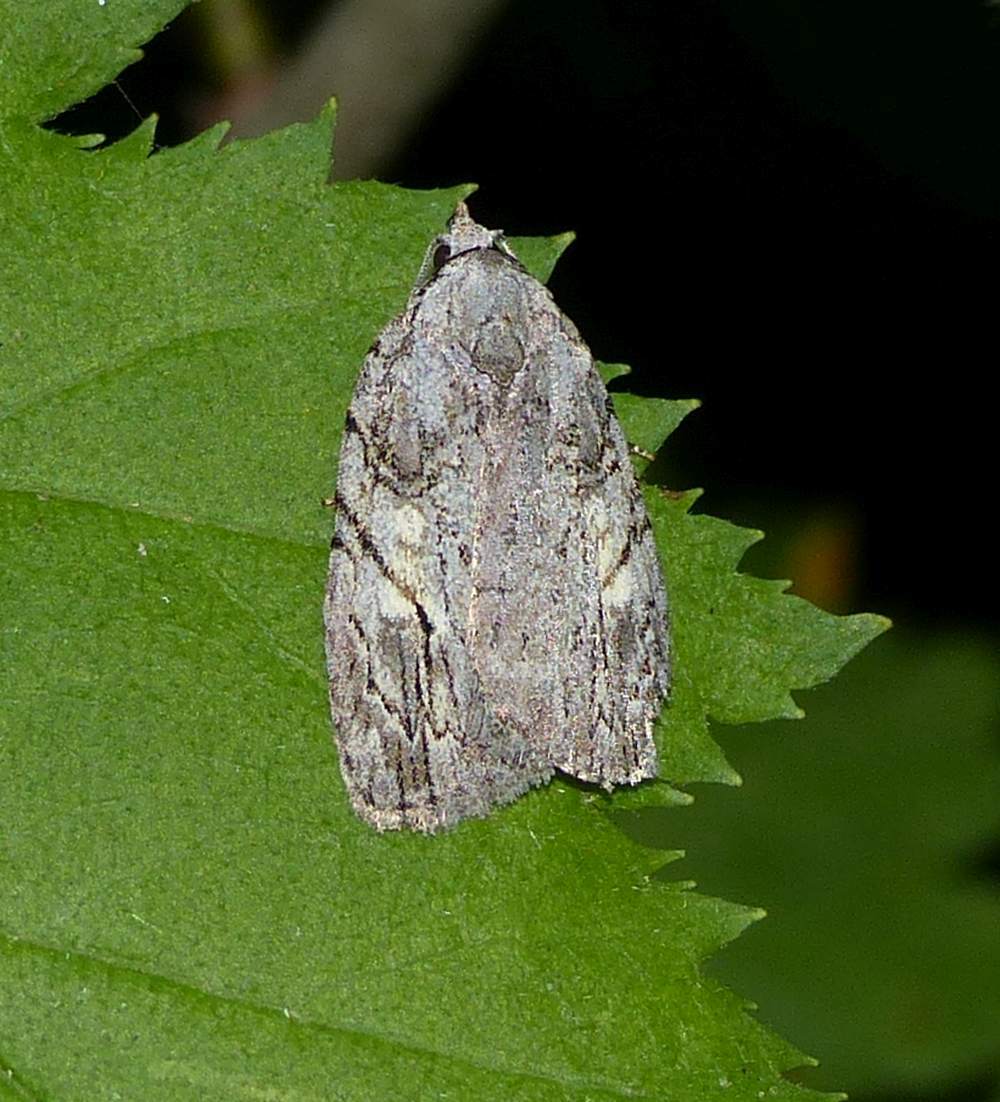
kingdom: Animalia
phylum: Arthropoda
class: Insecta
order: Lepidoptera
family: Noctuidae
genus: Balsa
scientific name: Balsa labecula
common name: White-blotched balsa moth
